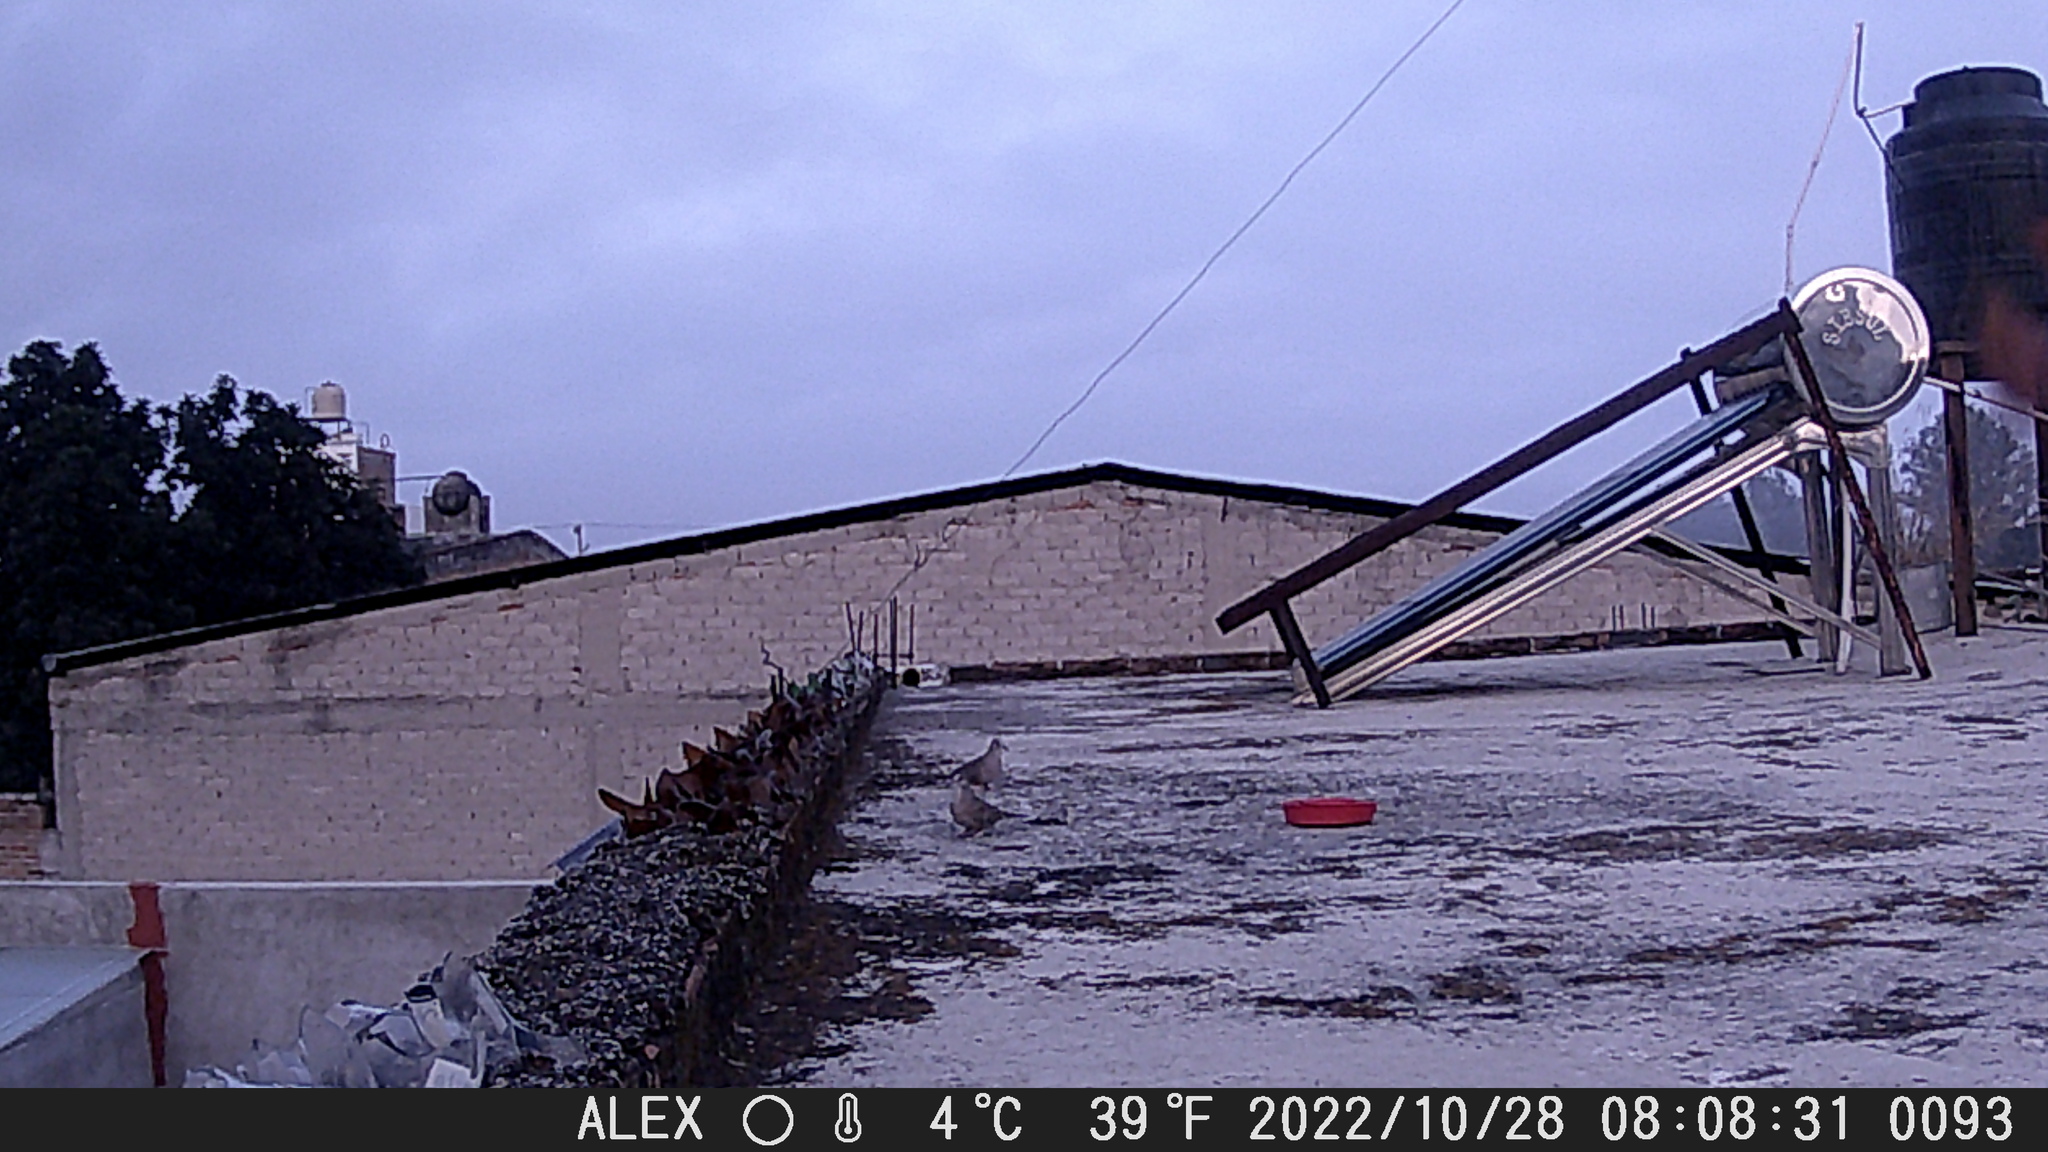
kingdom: Animalia
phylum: Chordata
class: Aves
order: Columbiformes
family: Columbidae
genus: Columbina
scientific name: Columbina inca
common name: Inca dove
